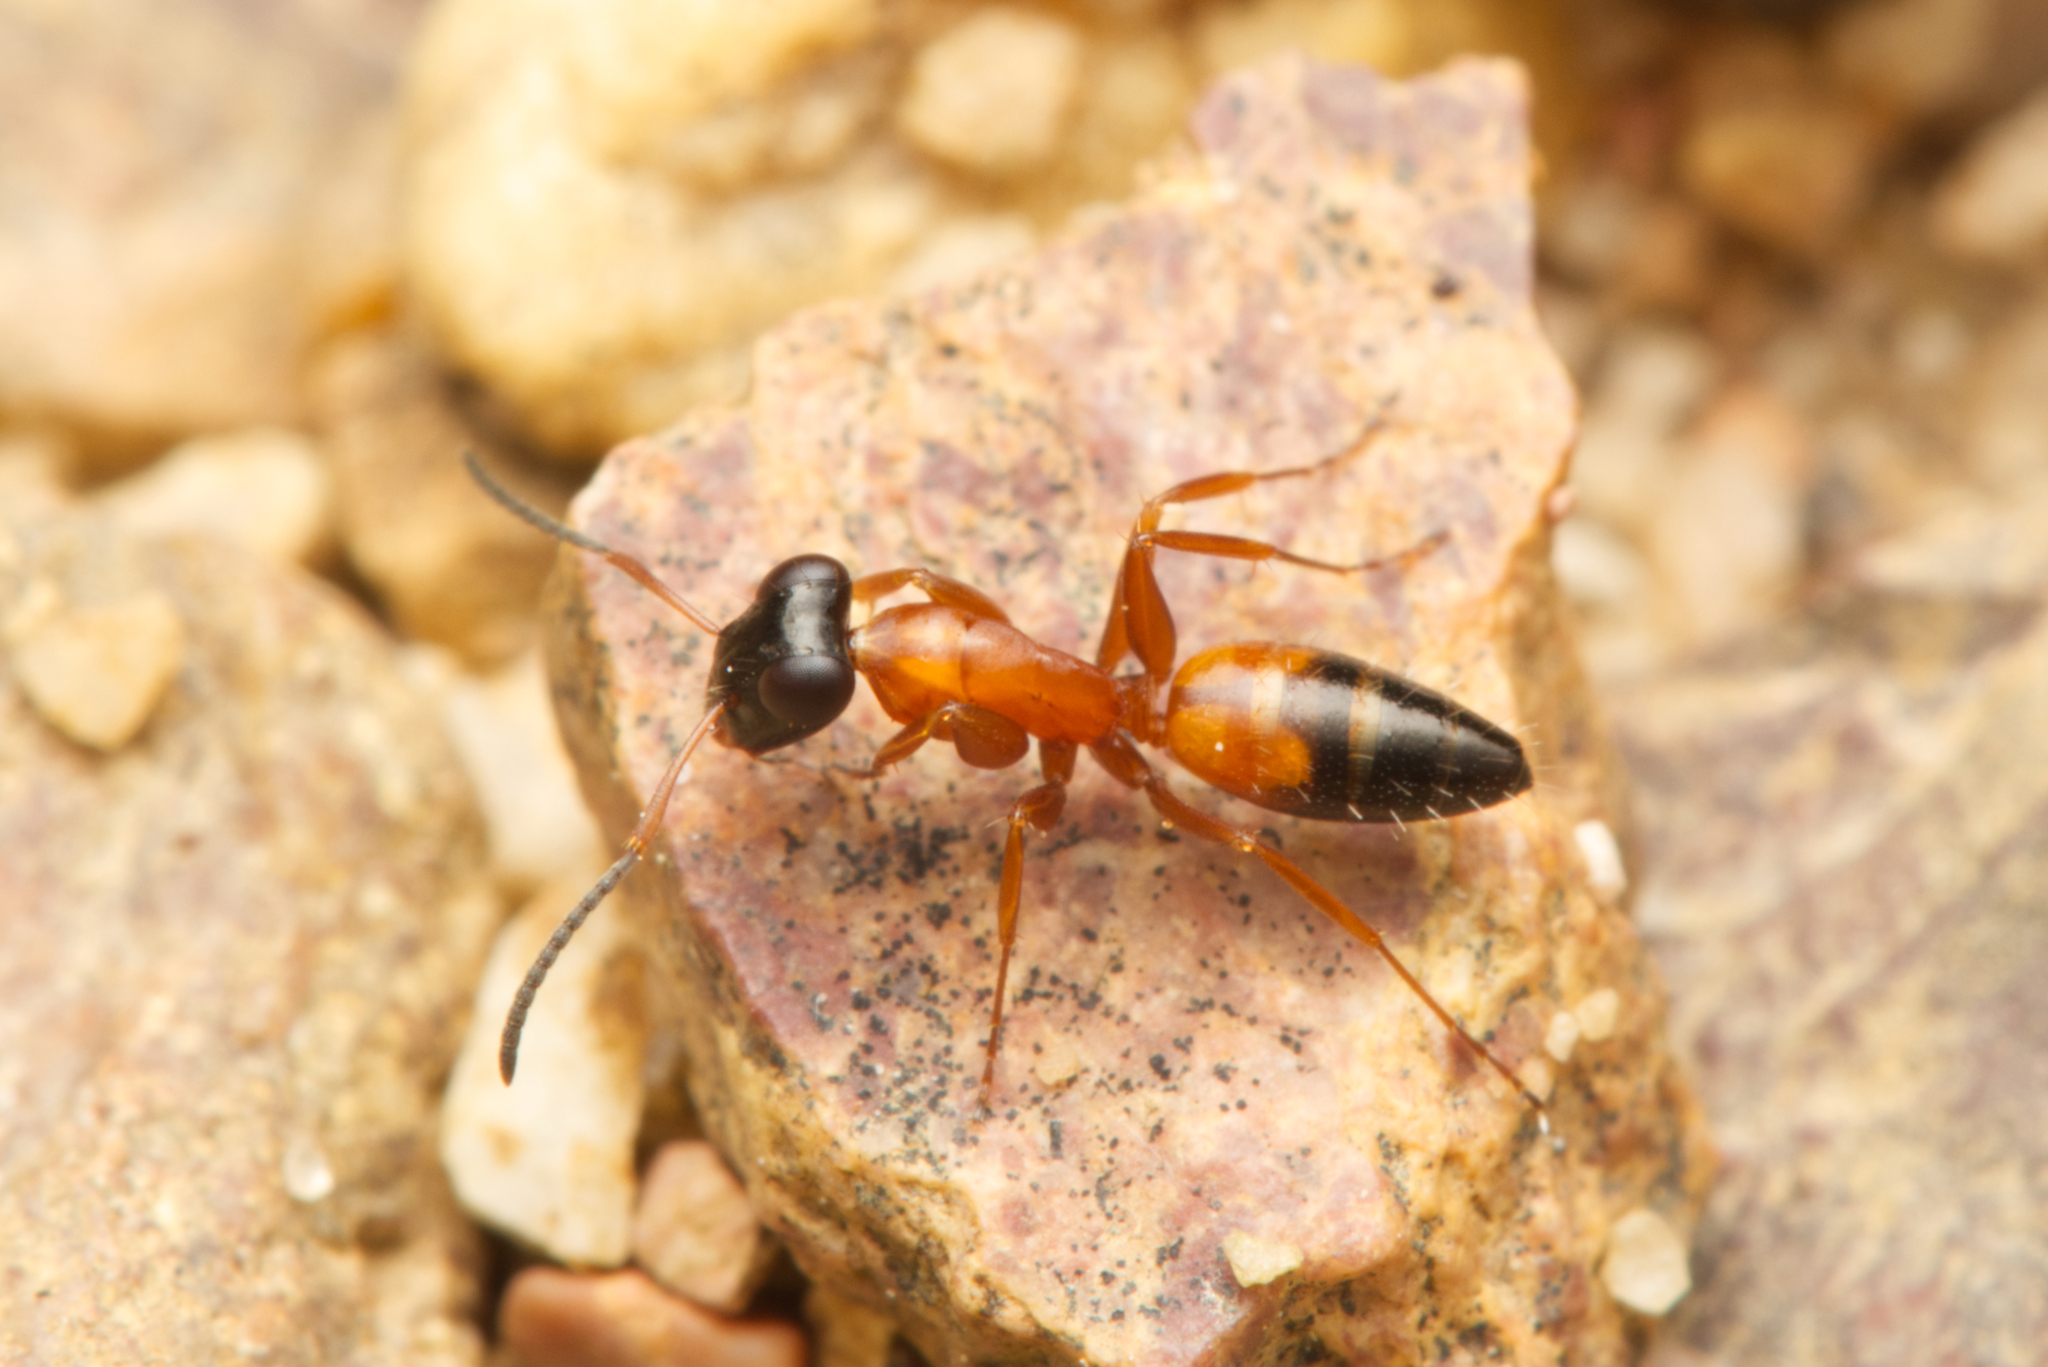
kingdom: Animalia
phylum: Arthropoda
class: Insecta
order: Hymenoptera
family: Formicidae
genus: Opisthopsis
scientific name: Opisthopsis rufithorax
